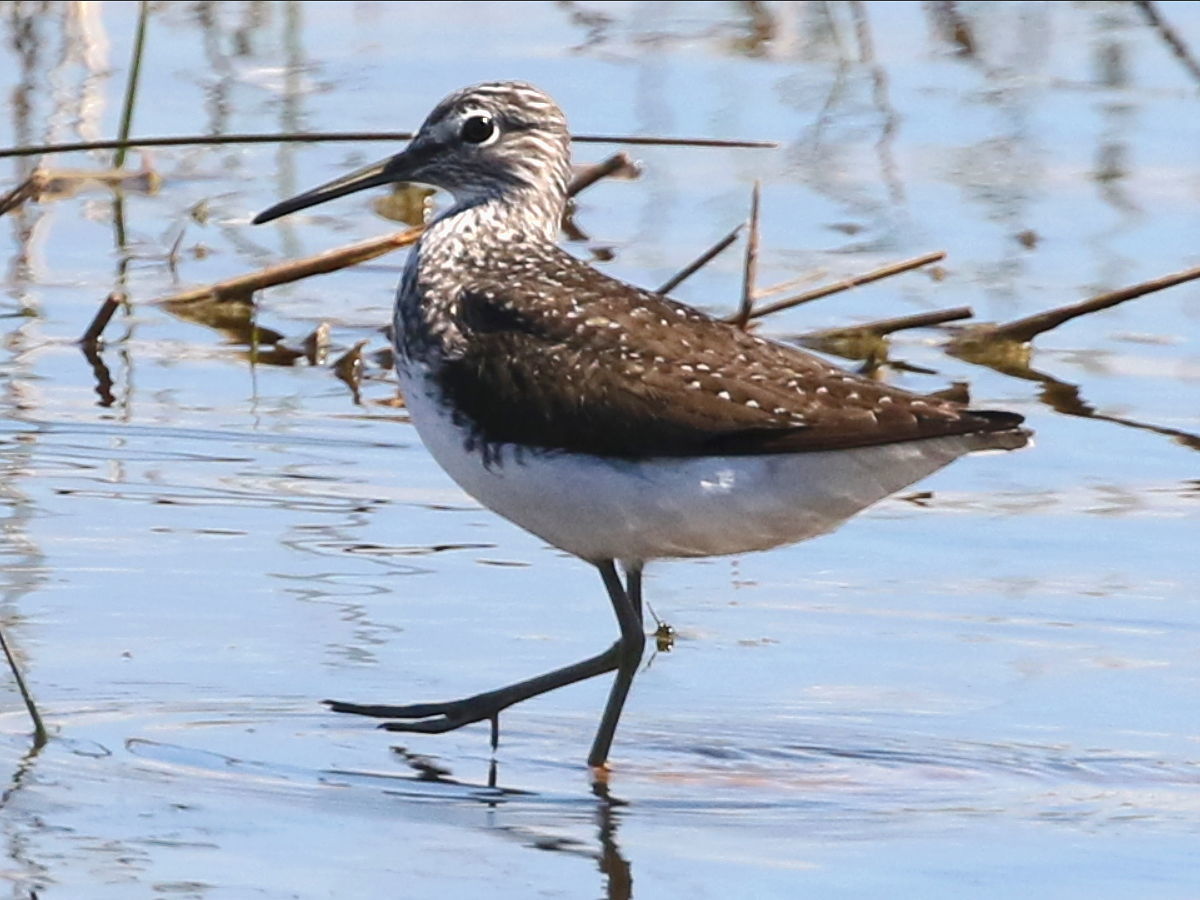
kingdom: Animalia
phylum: Chordata
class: Aves
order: Charadriiformes
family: Scolopacidae
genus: Tringa
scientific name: Tringa ochropus
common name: Green sandpiper
